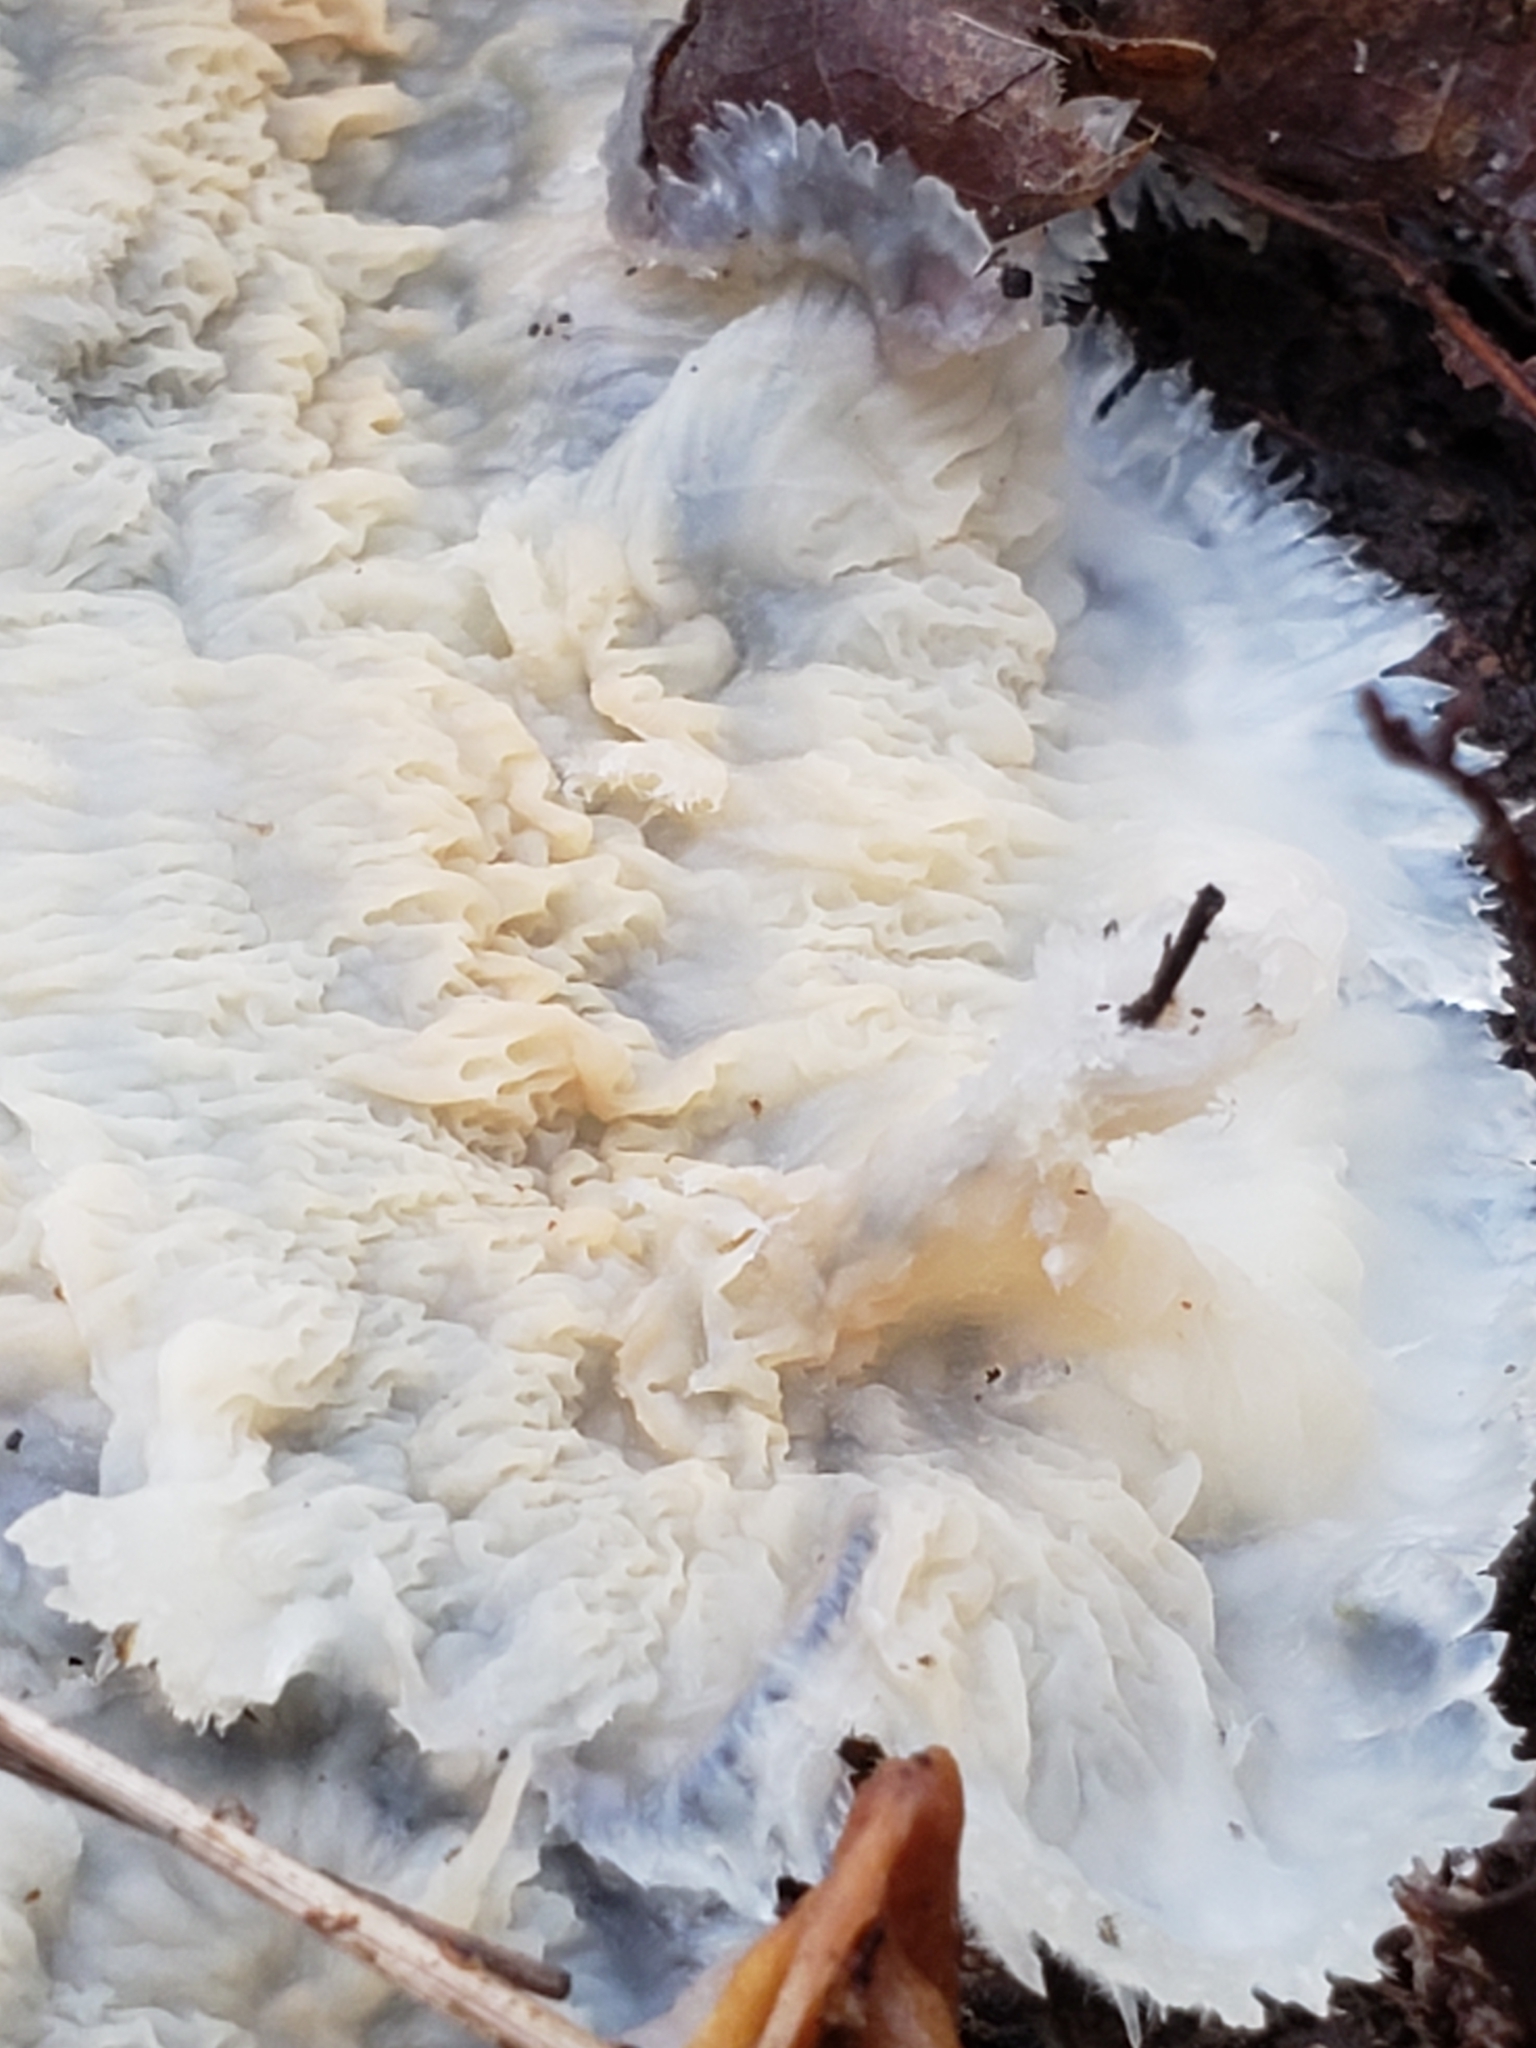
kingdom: Fungi
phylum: Basidiomycota
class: Agaricomycetes
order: Polyporales
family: Meruliaceae
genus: Phlebia
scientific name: Phlebia tremellosa
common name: Jelly rot
